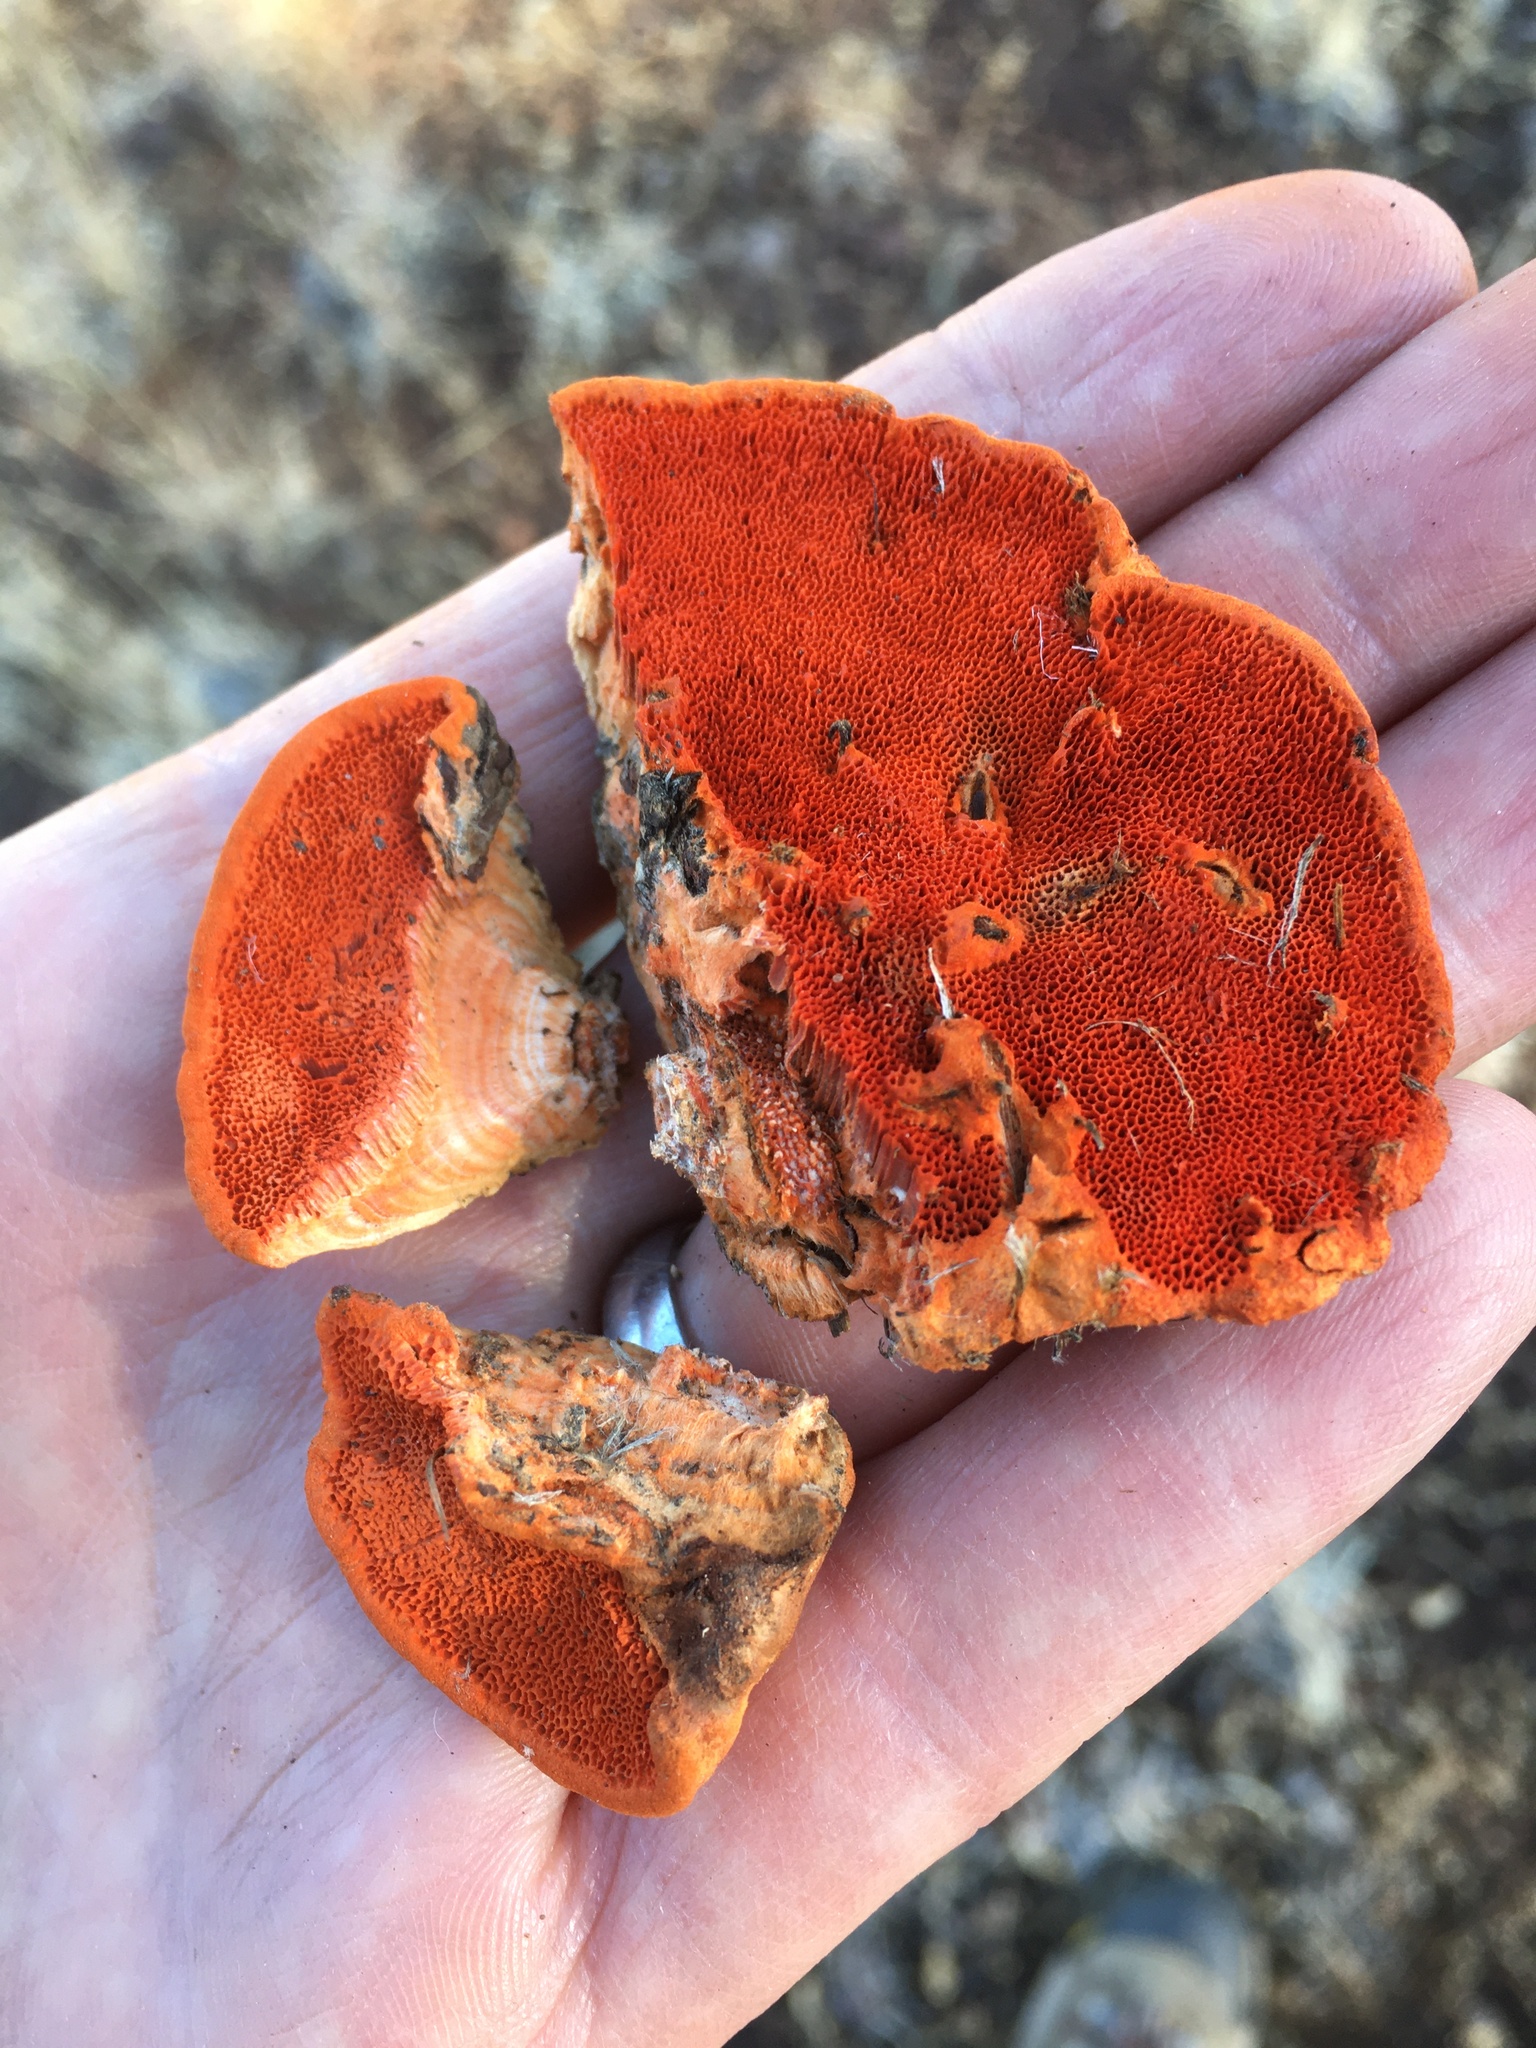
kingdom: Fungi
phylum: Basidiomycota
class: Agaricomycetes
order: Polyporales
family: Polyporaceae
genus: Trametes
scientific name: Trametes cinnabarina
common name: Northern cinnabar polypore
